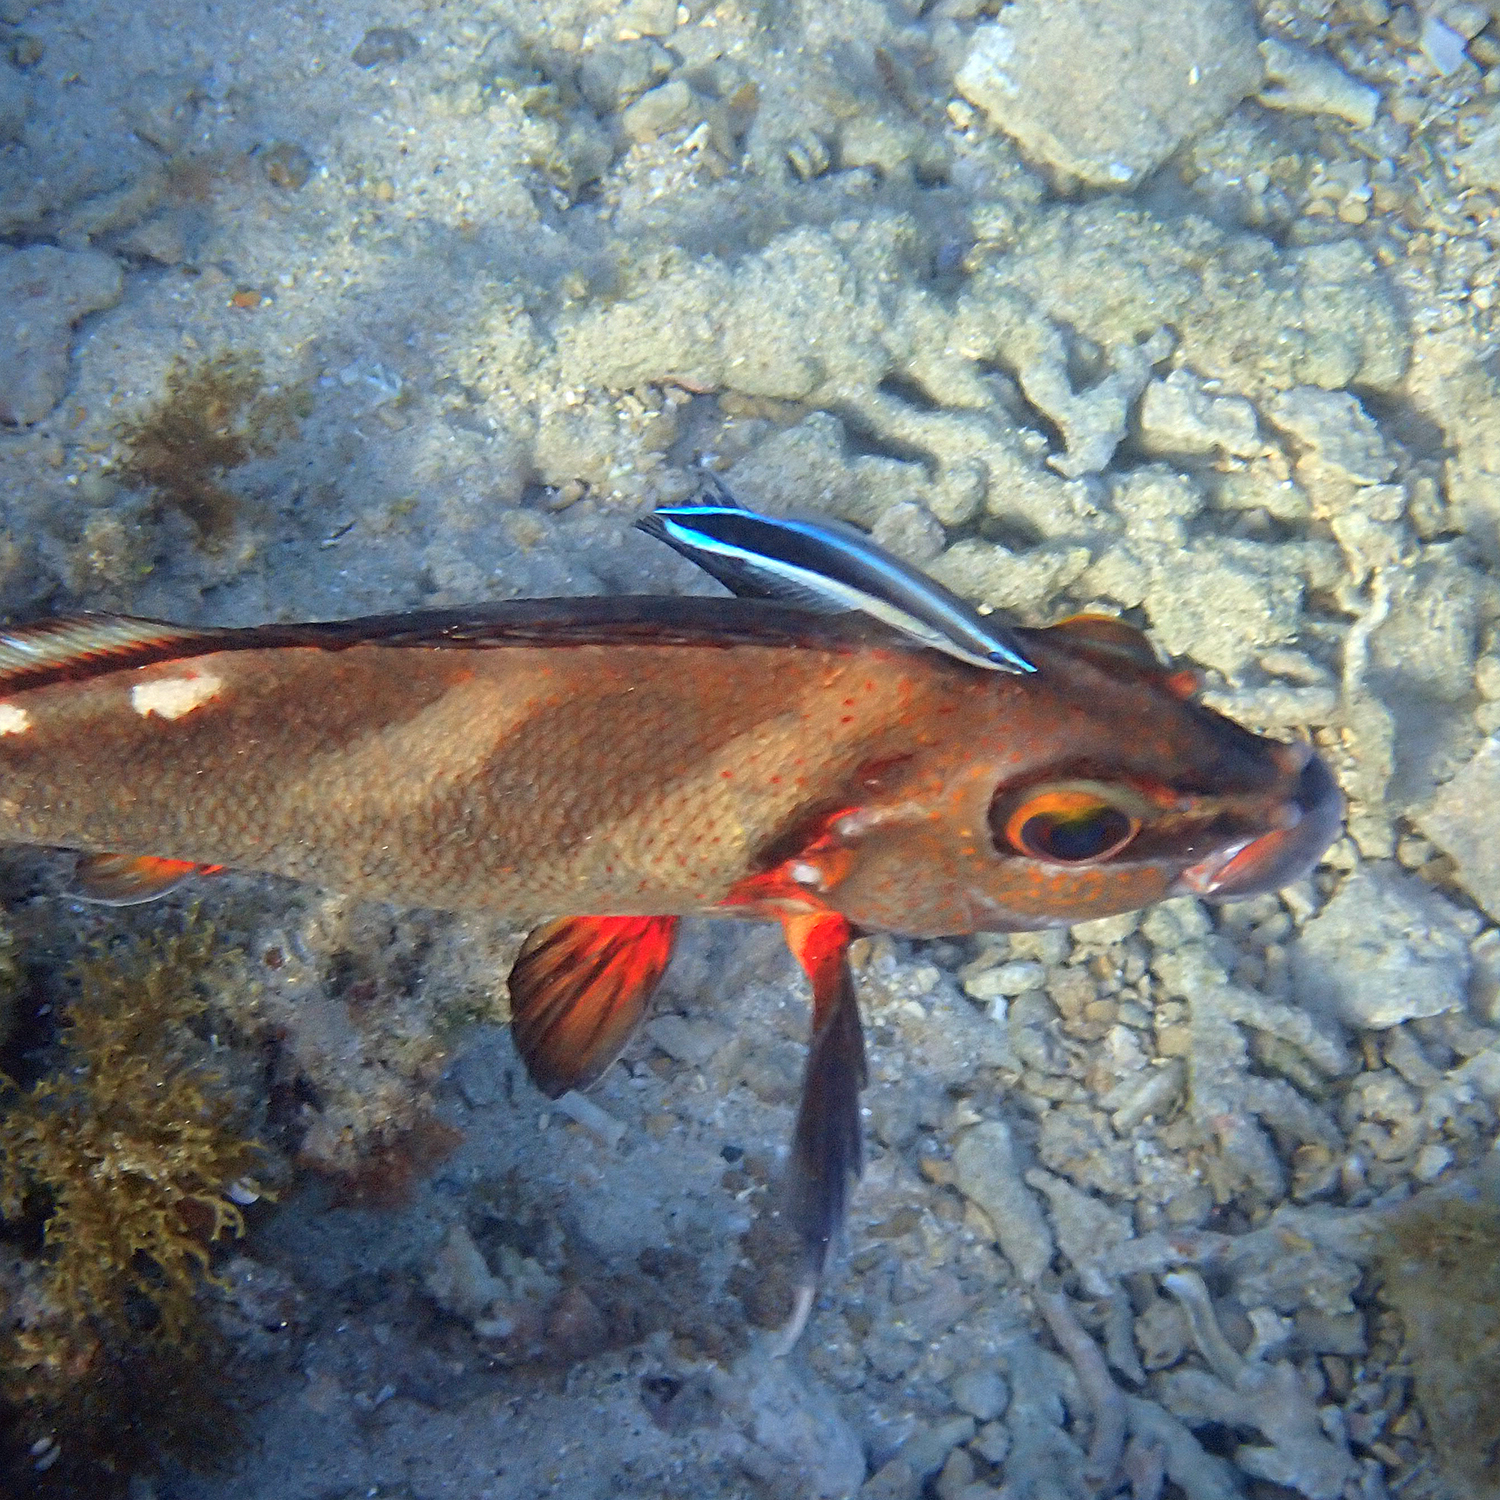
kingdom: Animalia
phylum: Chordata
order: Perciformes
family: Latridae
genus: Morwong
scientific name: Morwong ephippium
